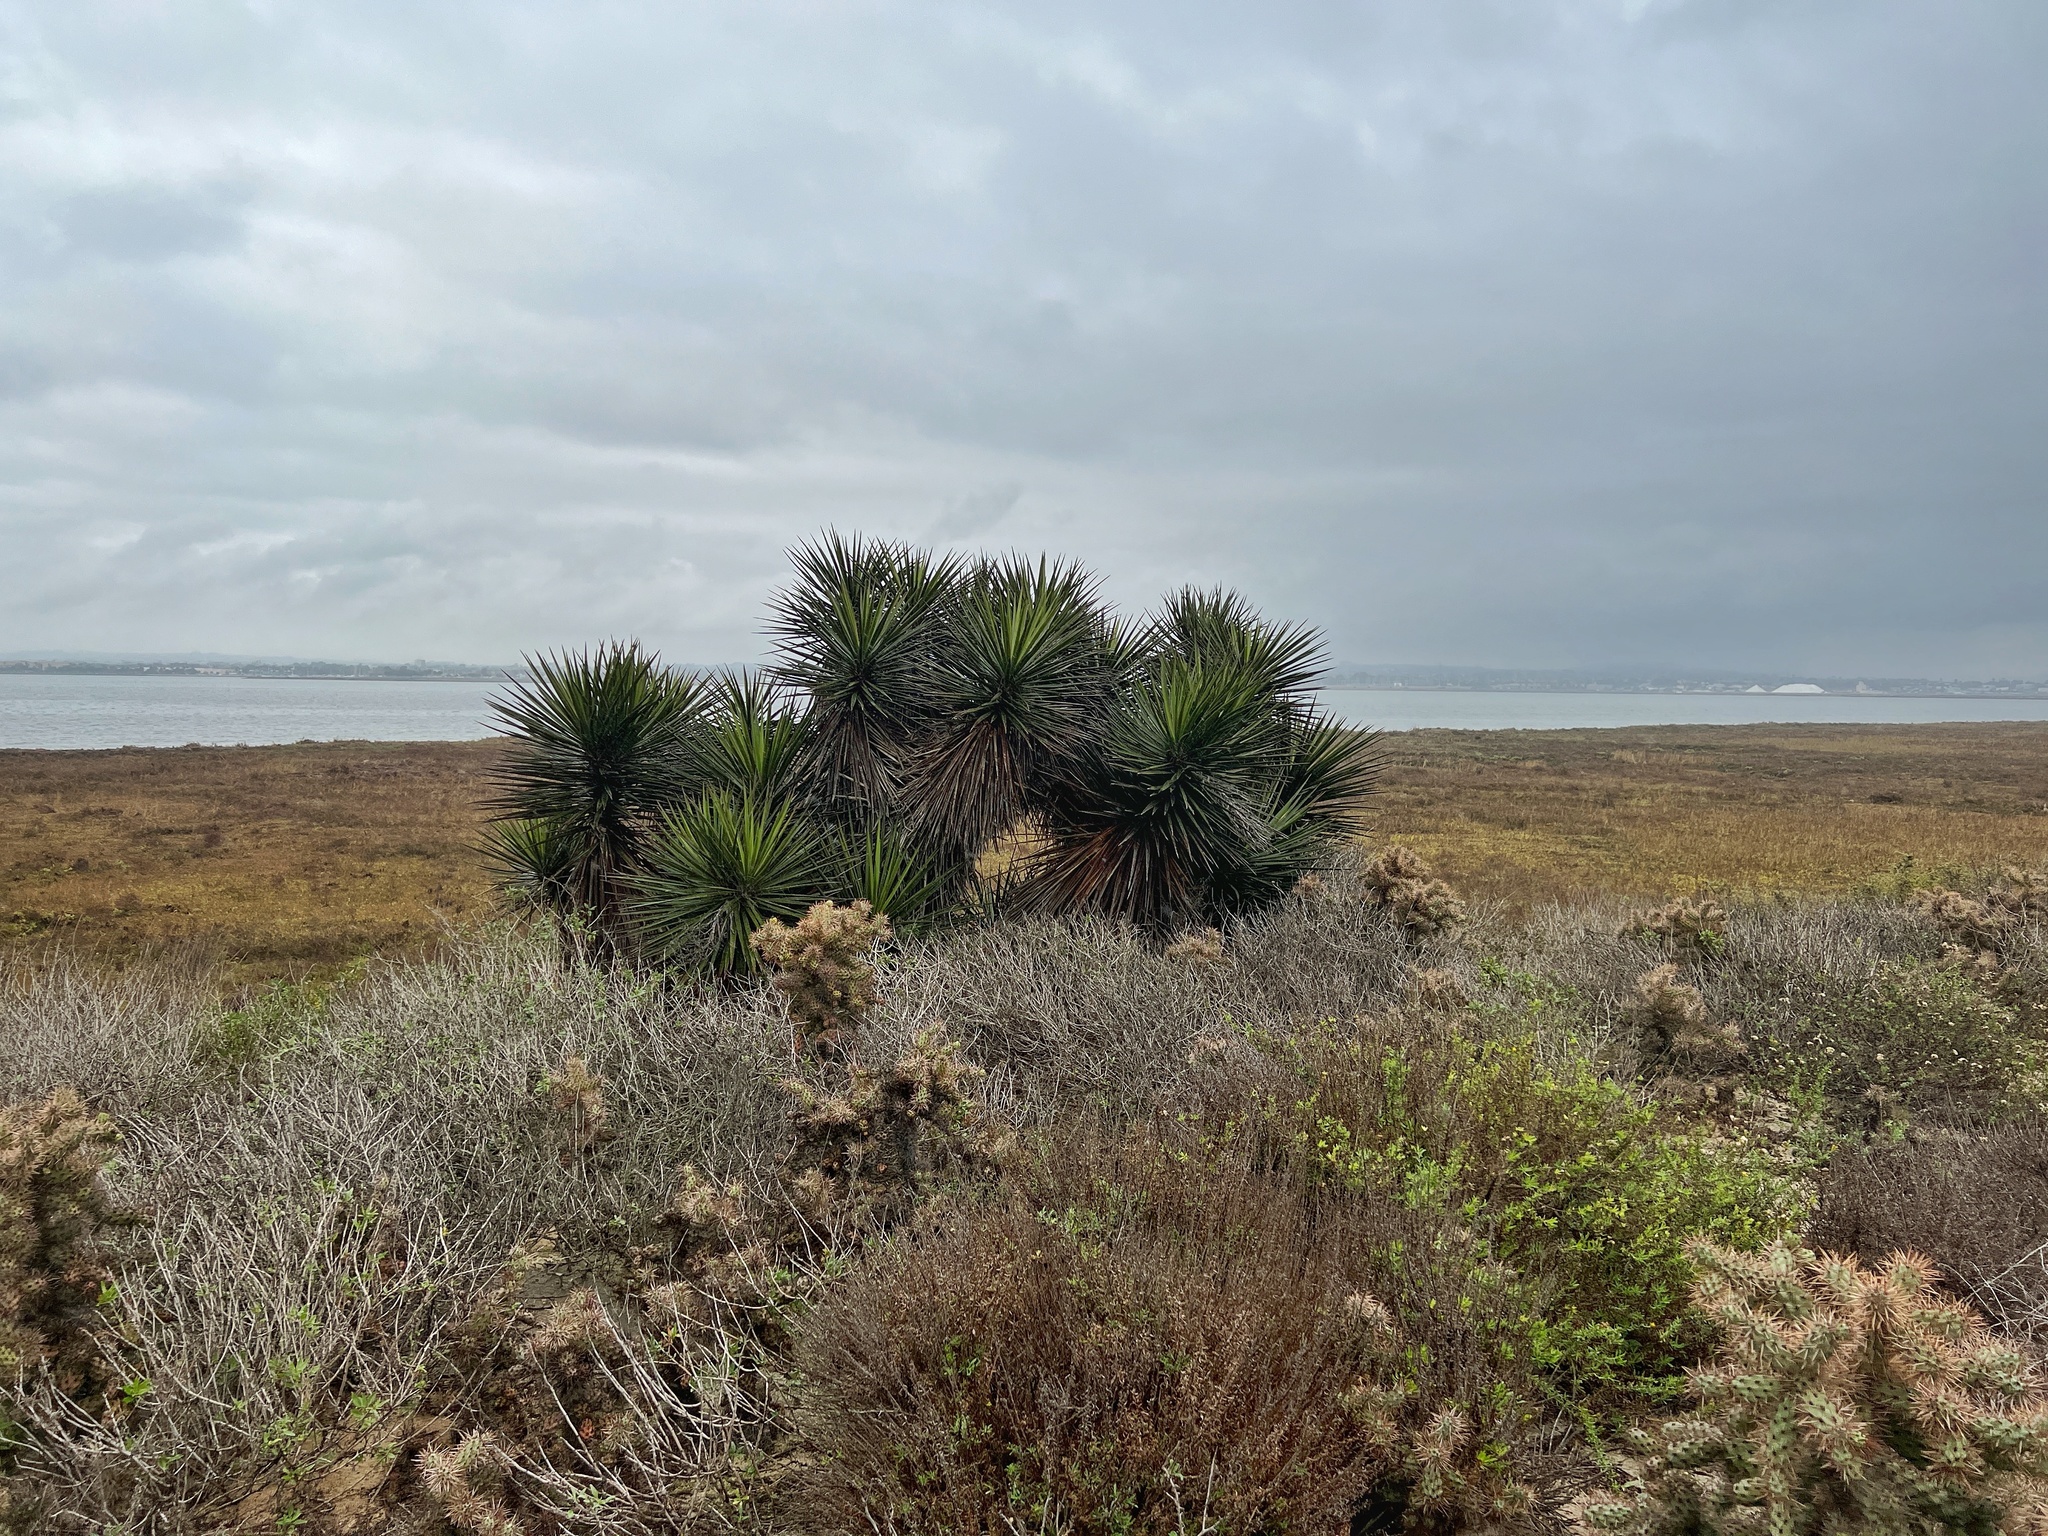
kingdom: Plantae
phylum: Tracheophyta
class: Liliopsida
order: Asparagales
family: Asparagaceae
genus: Yucca
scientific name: Yucca schidigera
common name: Mojave yucca
